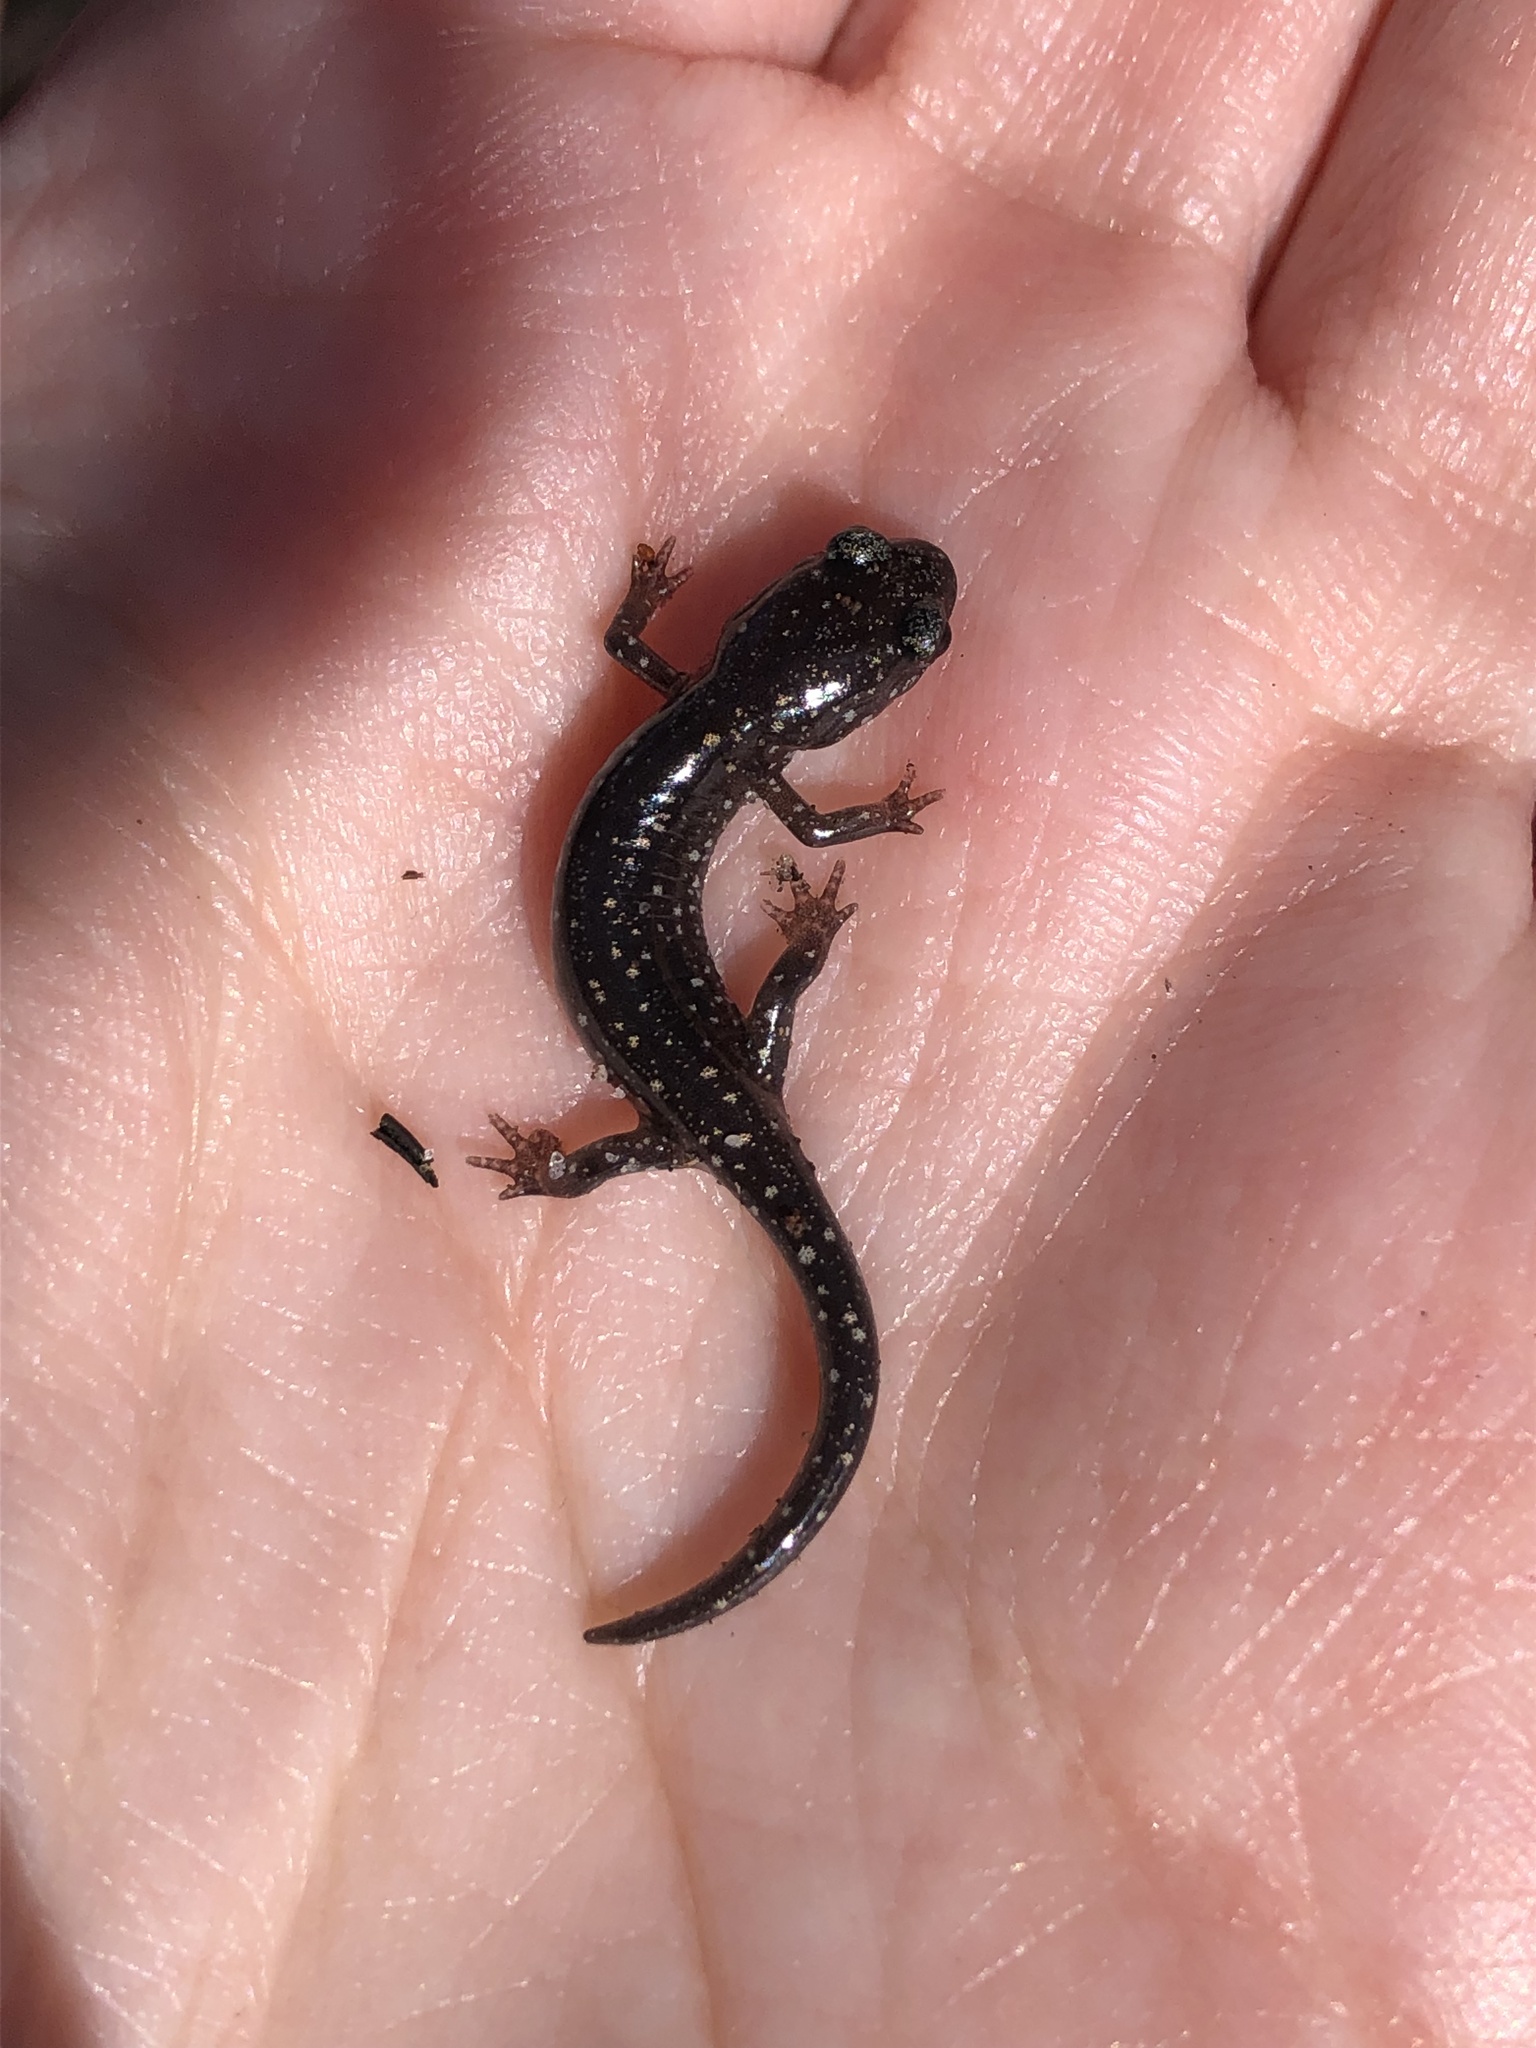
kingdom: Animalia
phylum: Chordata
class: Amphibia
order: Caudata
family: Plethodontidae
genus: Plethodon
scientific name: Plethodon ocmulgee
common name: Ocmulgee slimy salamander
